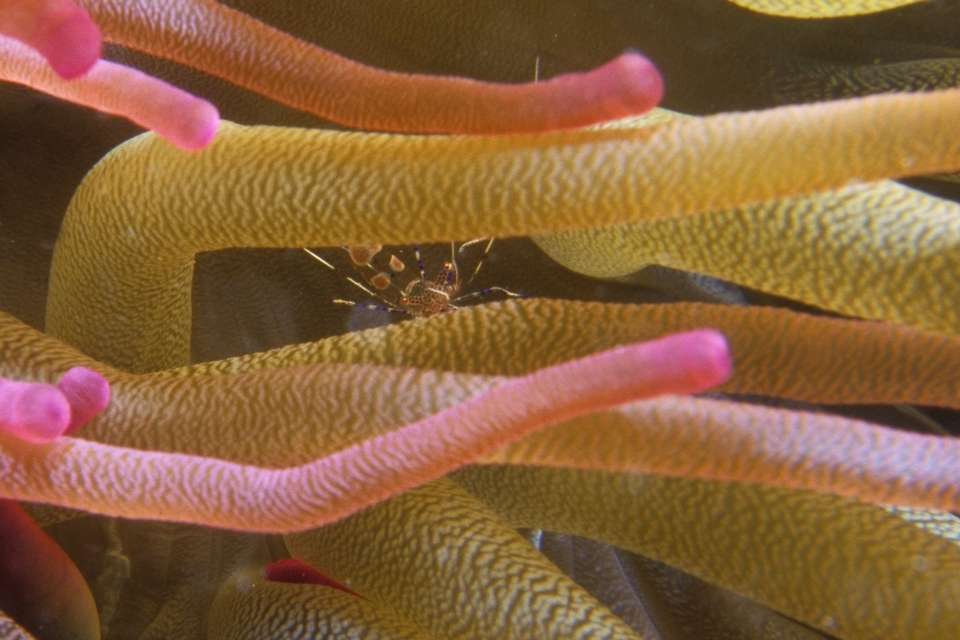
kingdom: Animalia
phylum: Arthropoda
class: Malacostraca
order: Decapoda
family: Palaemonidae
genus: Periclimenes
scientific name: Periclimenes yucatanicus
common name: Spotted cleaning shrimp
